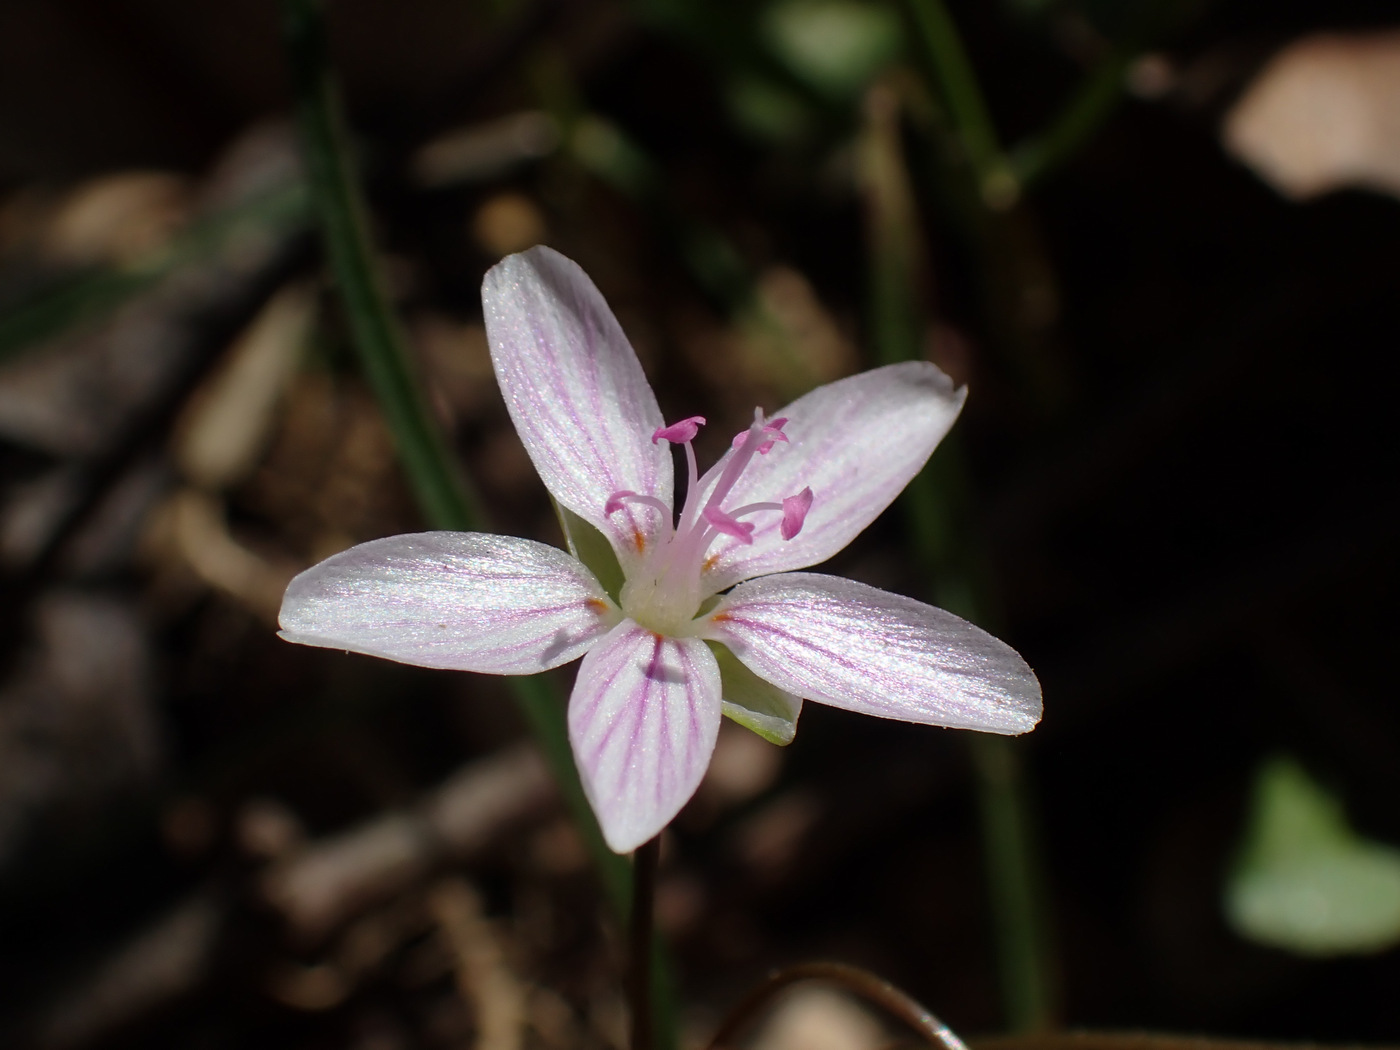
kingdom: Plantae
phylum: Tracheophyta
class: Magnoliopsida
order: Caryophyllales
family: Montiaceae
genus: Claytonia
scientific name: Claytonia virginica
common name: Virginia springbeauty
